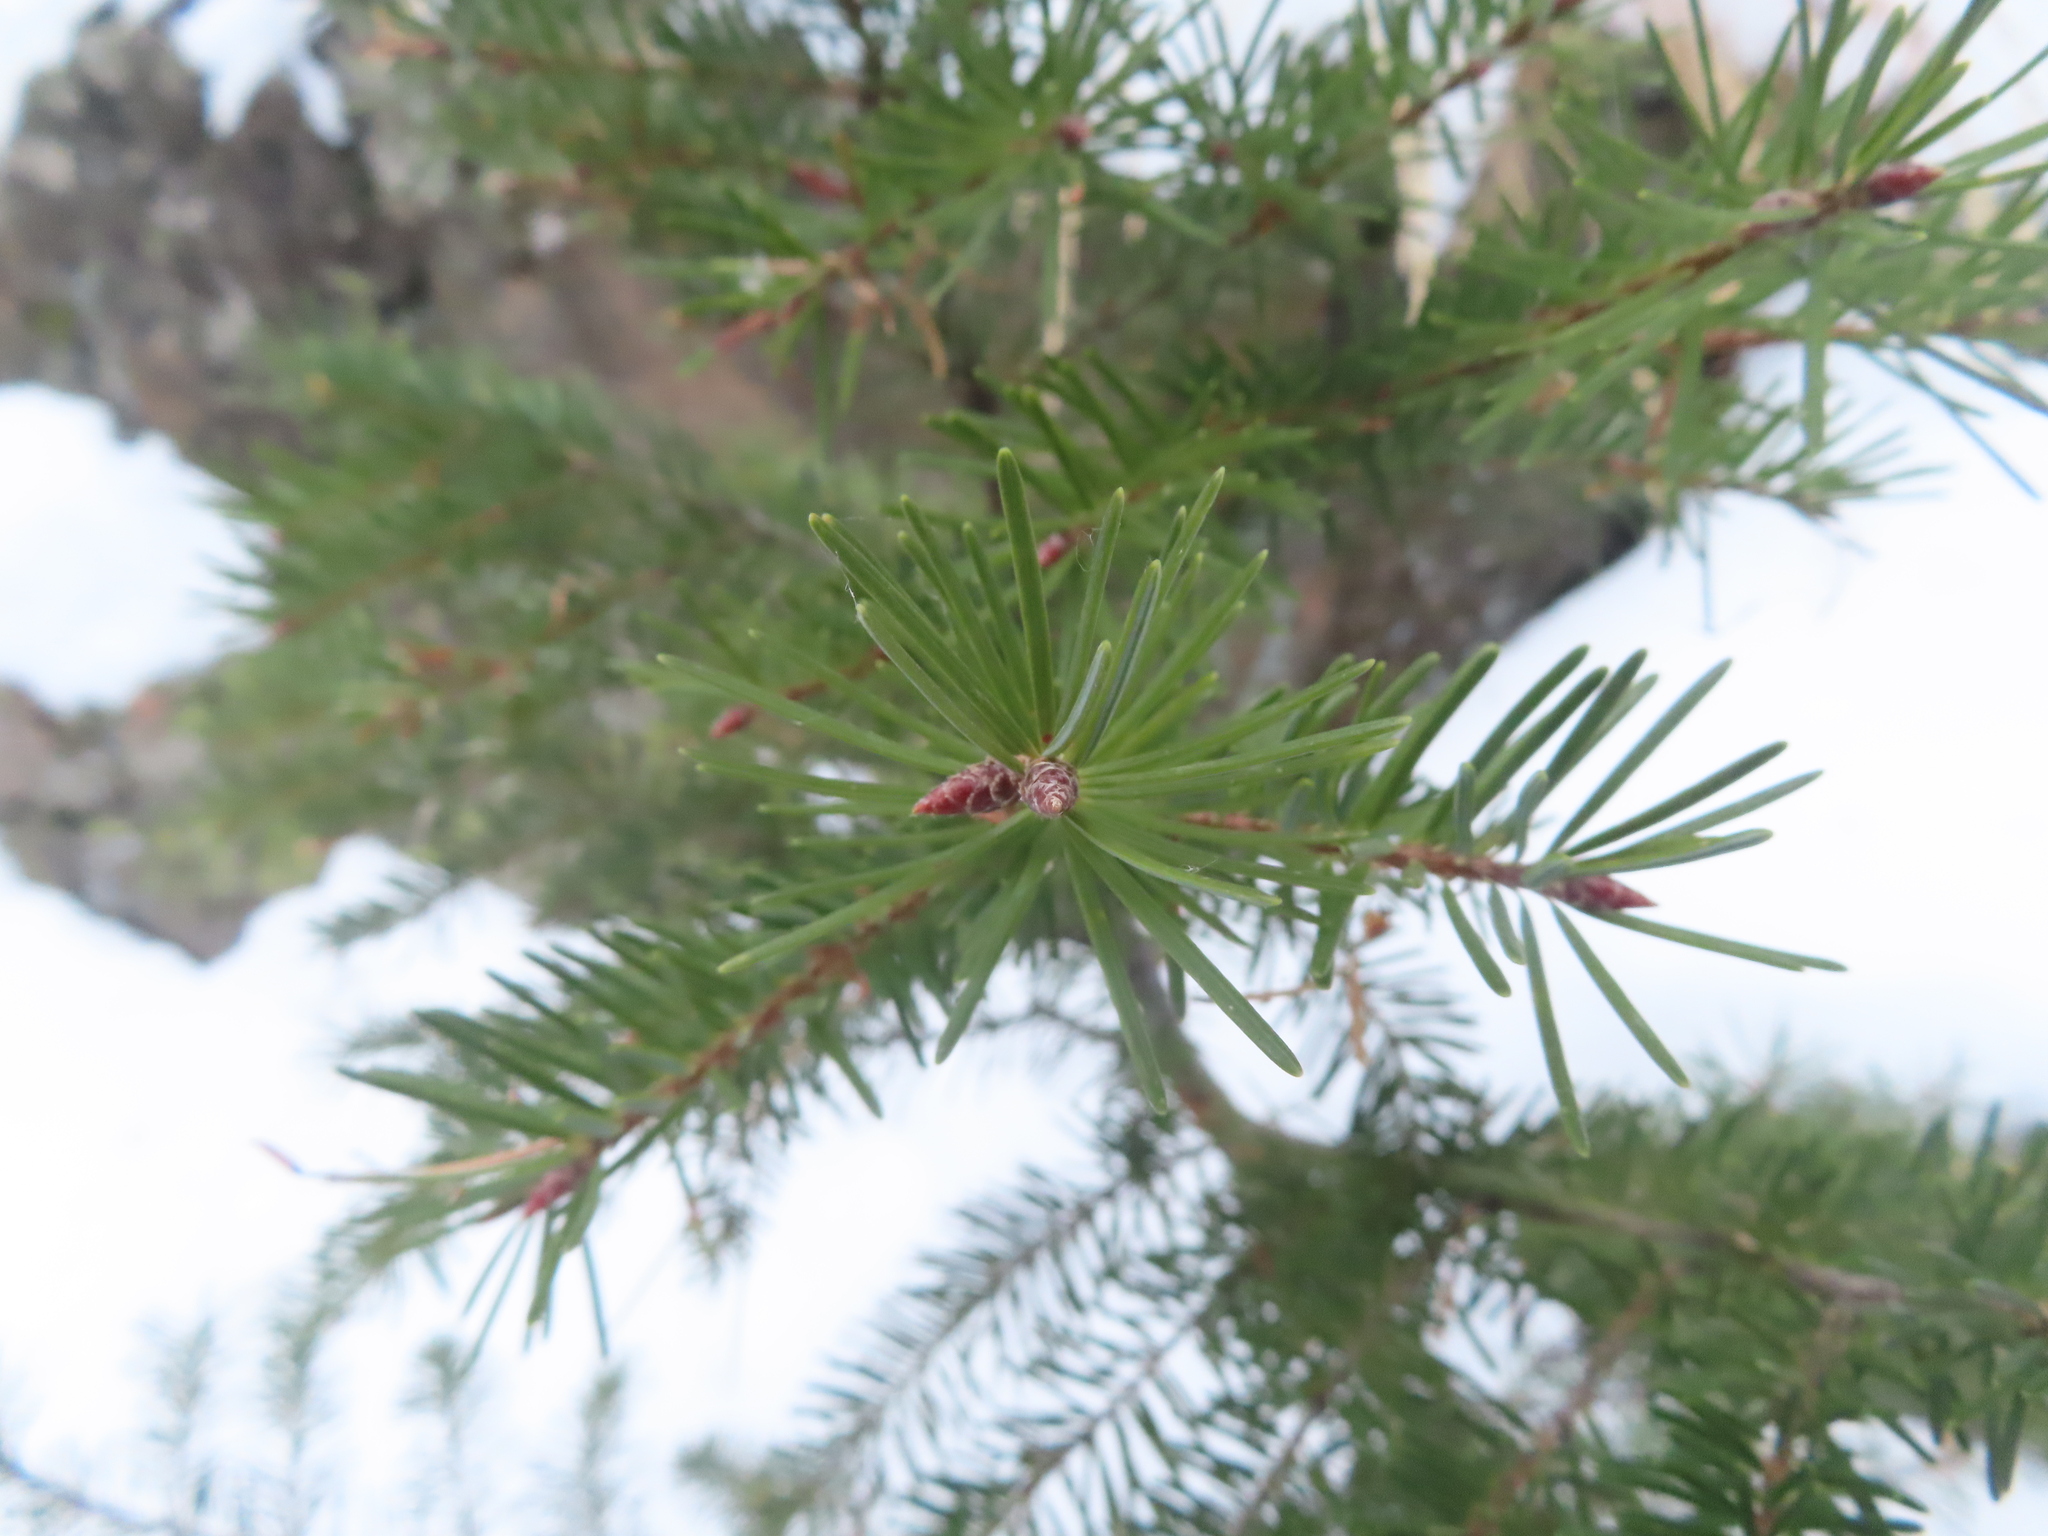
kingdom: Plantae
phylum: Tracheophyta
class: Pinopsida
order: Pinales
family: Pinaceae
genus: Pseudotsuga
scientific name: Pseudotsuga menziesii
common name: Douglas fir
